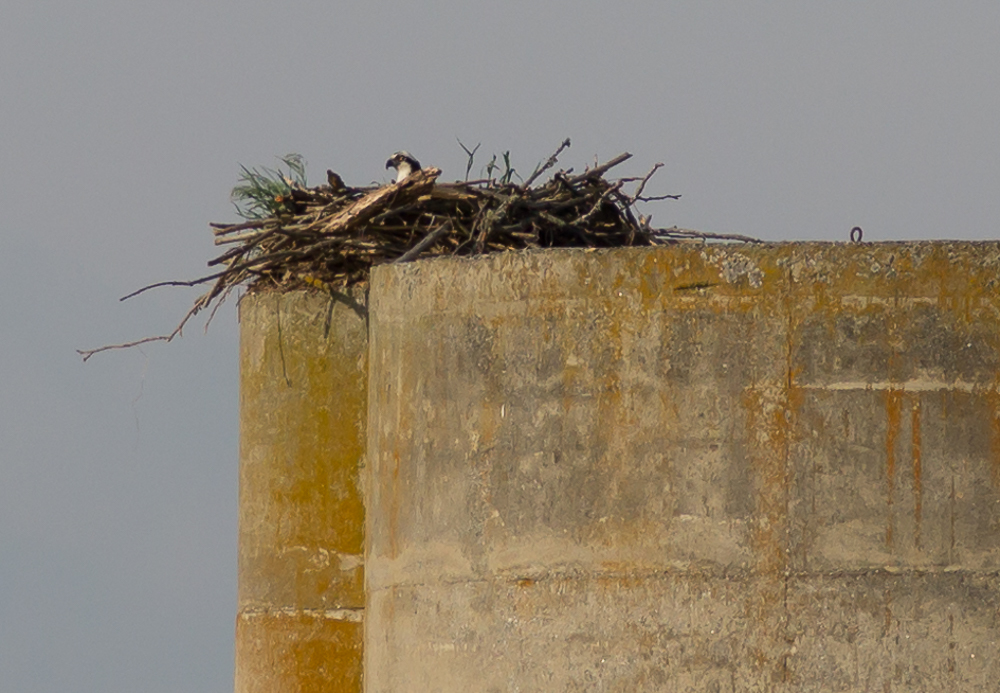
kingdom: Animalia
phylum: Chordata
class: Aves
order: Accipitriformes
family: Pandionidae
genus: Pandion
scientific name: Pandion haliaetus
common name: Osprey
